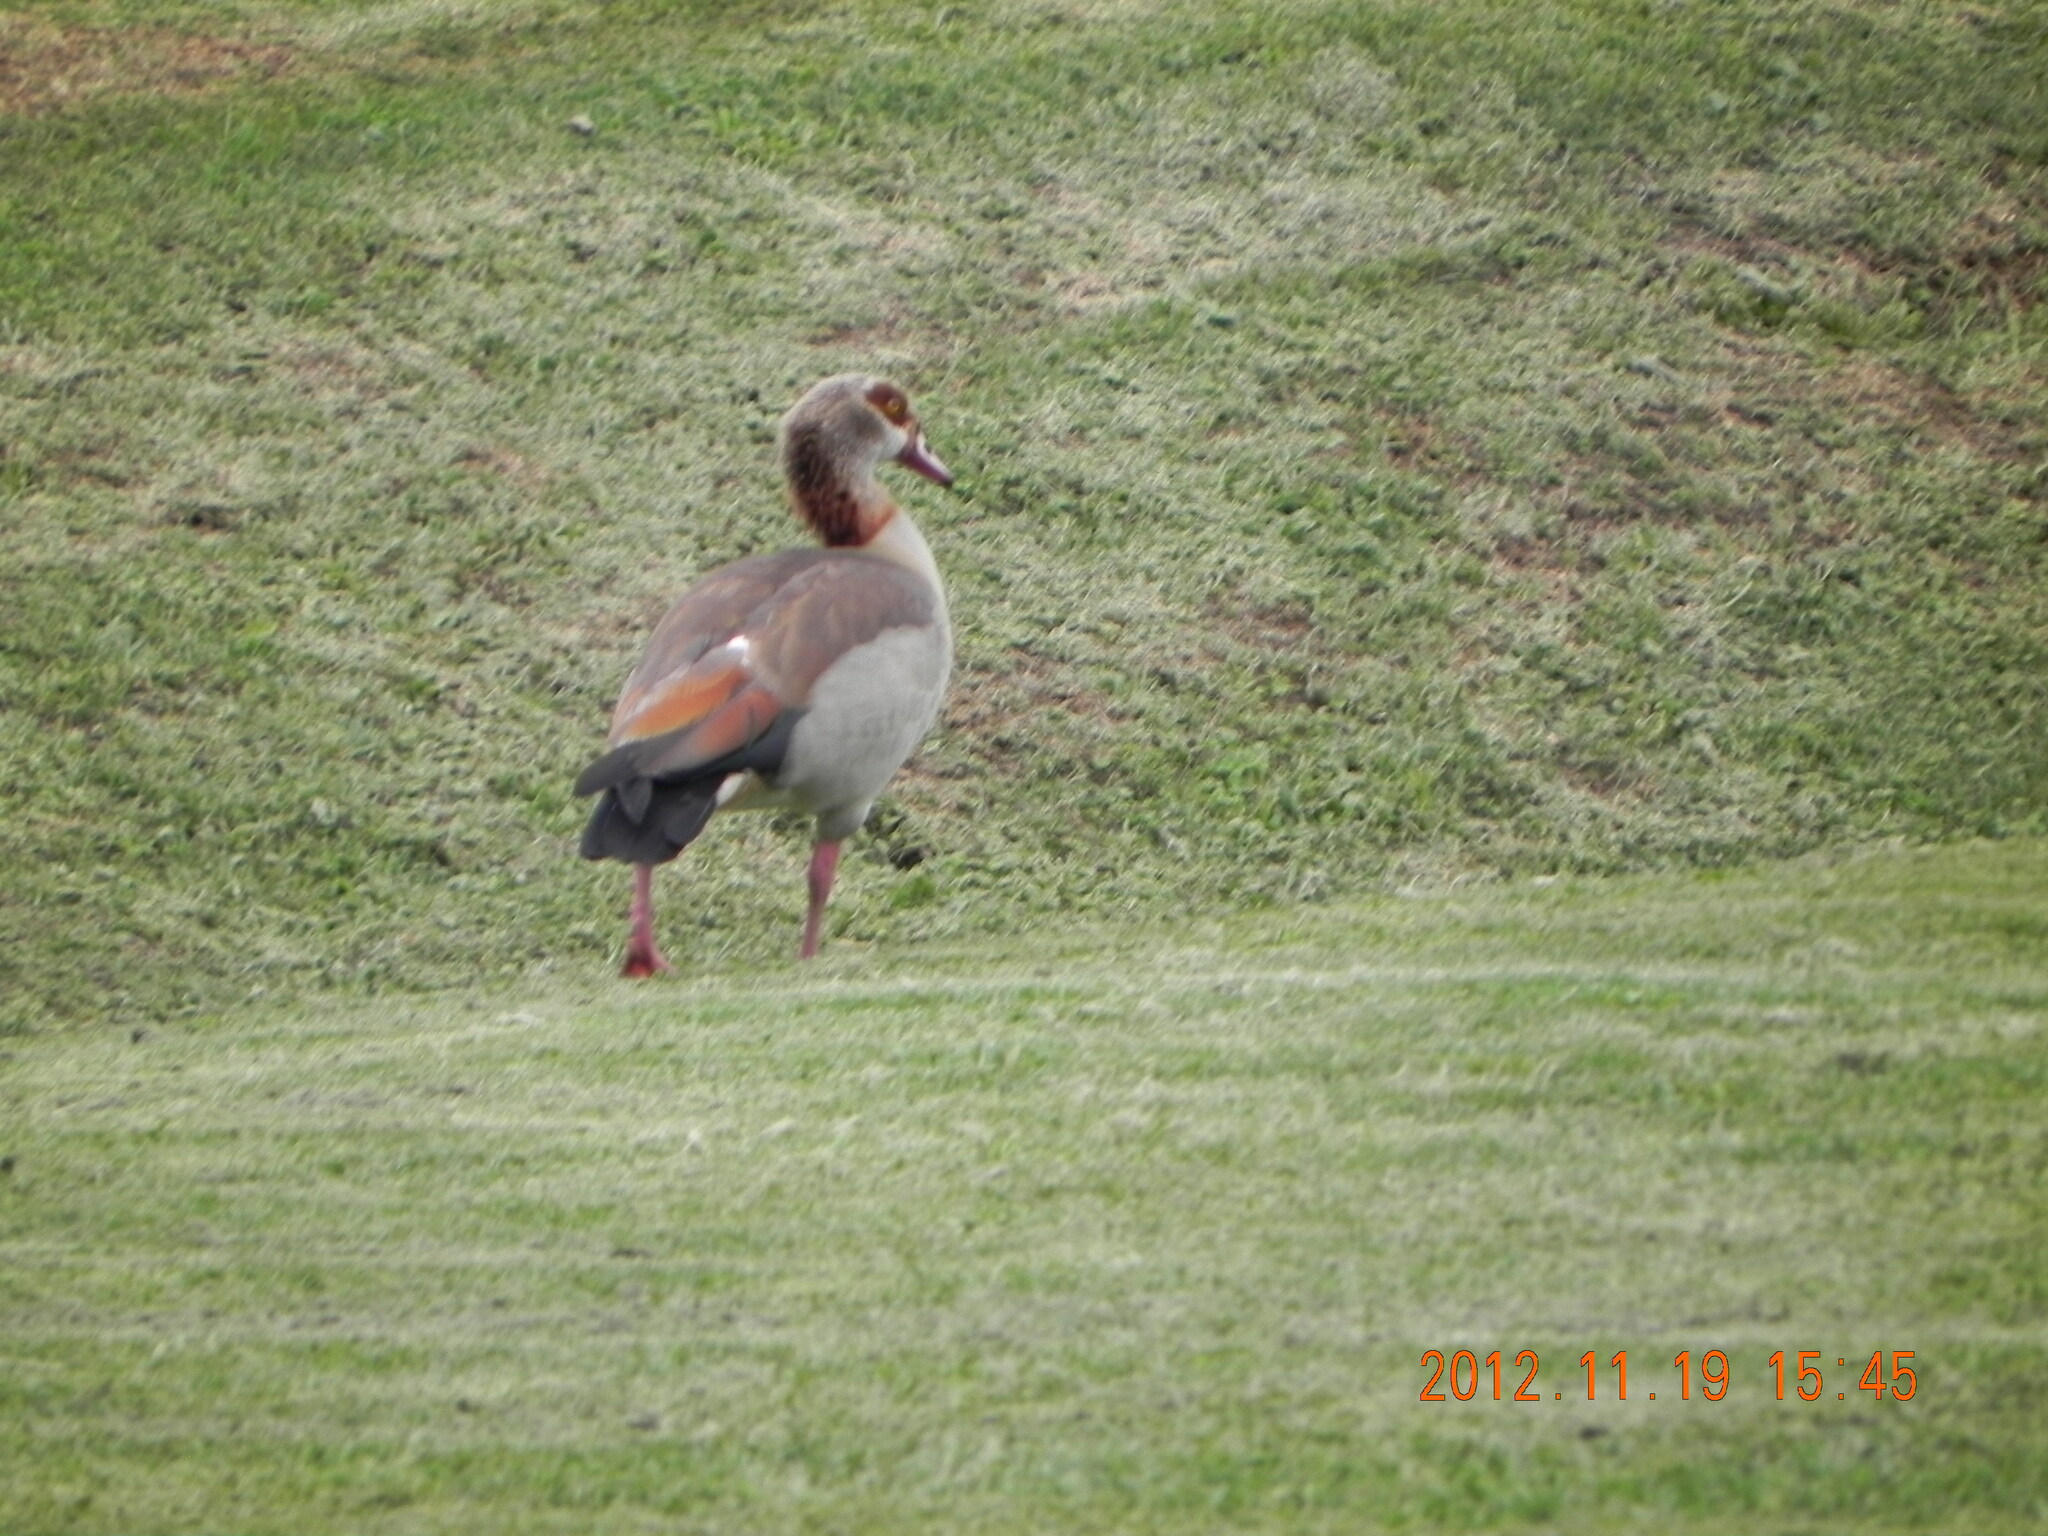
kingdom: Animalia
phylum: Chordata
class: Aves
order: Anseriformes
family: Anatidae
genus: Alopochen
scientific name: Alopochen aegyptiaca
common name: Egyptian goose
